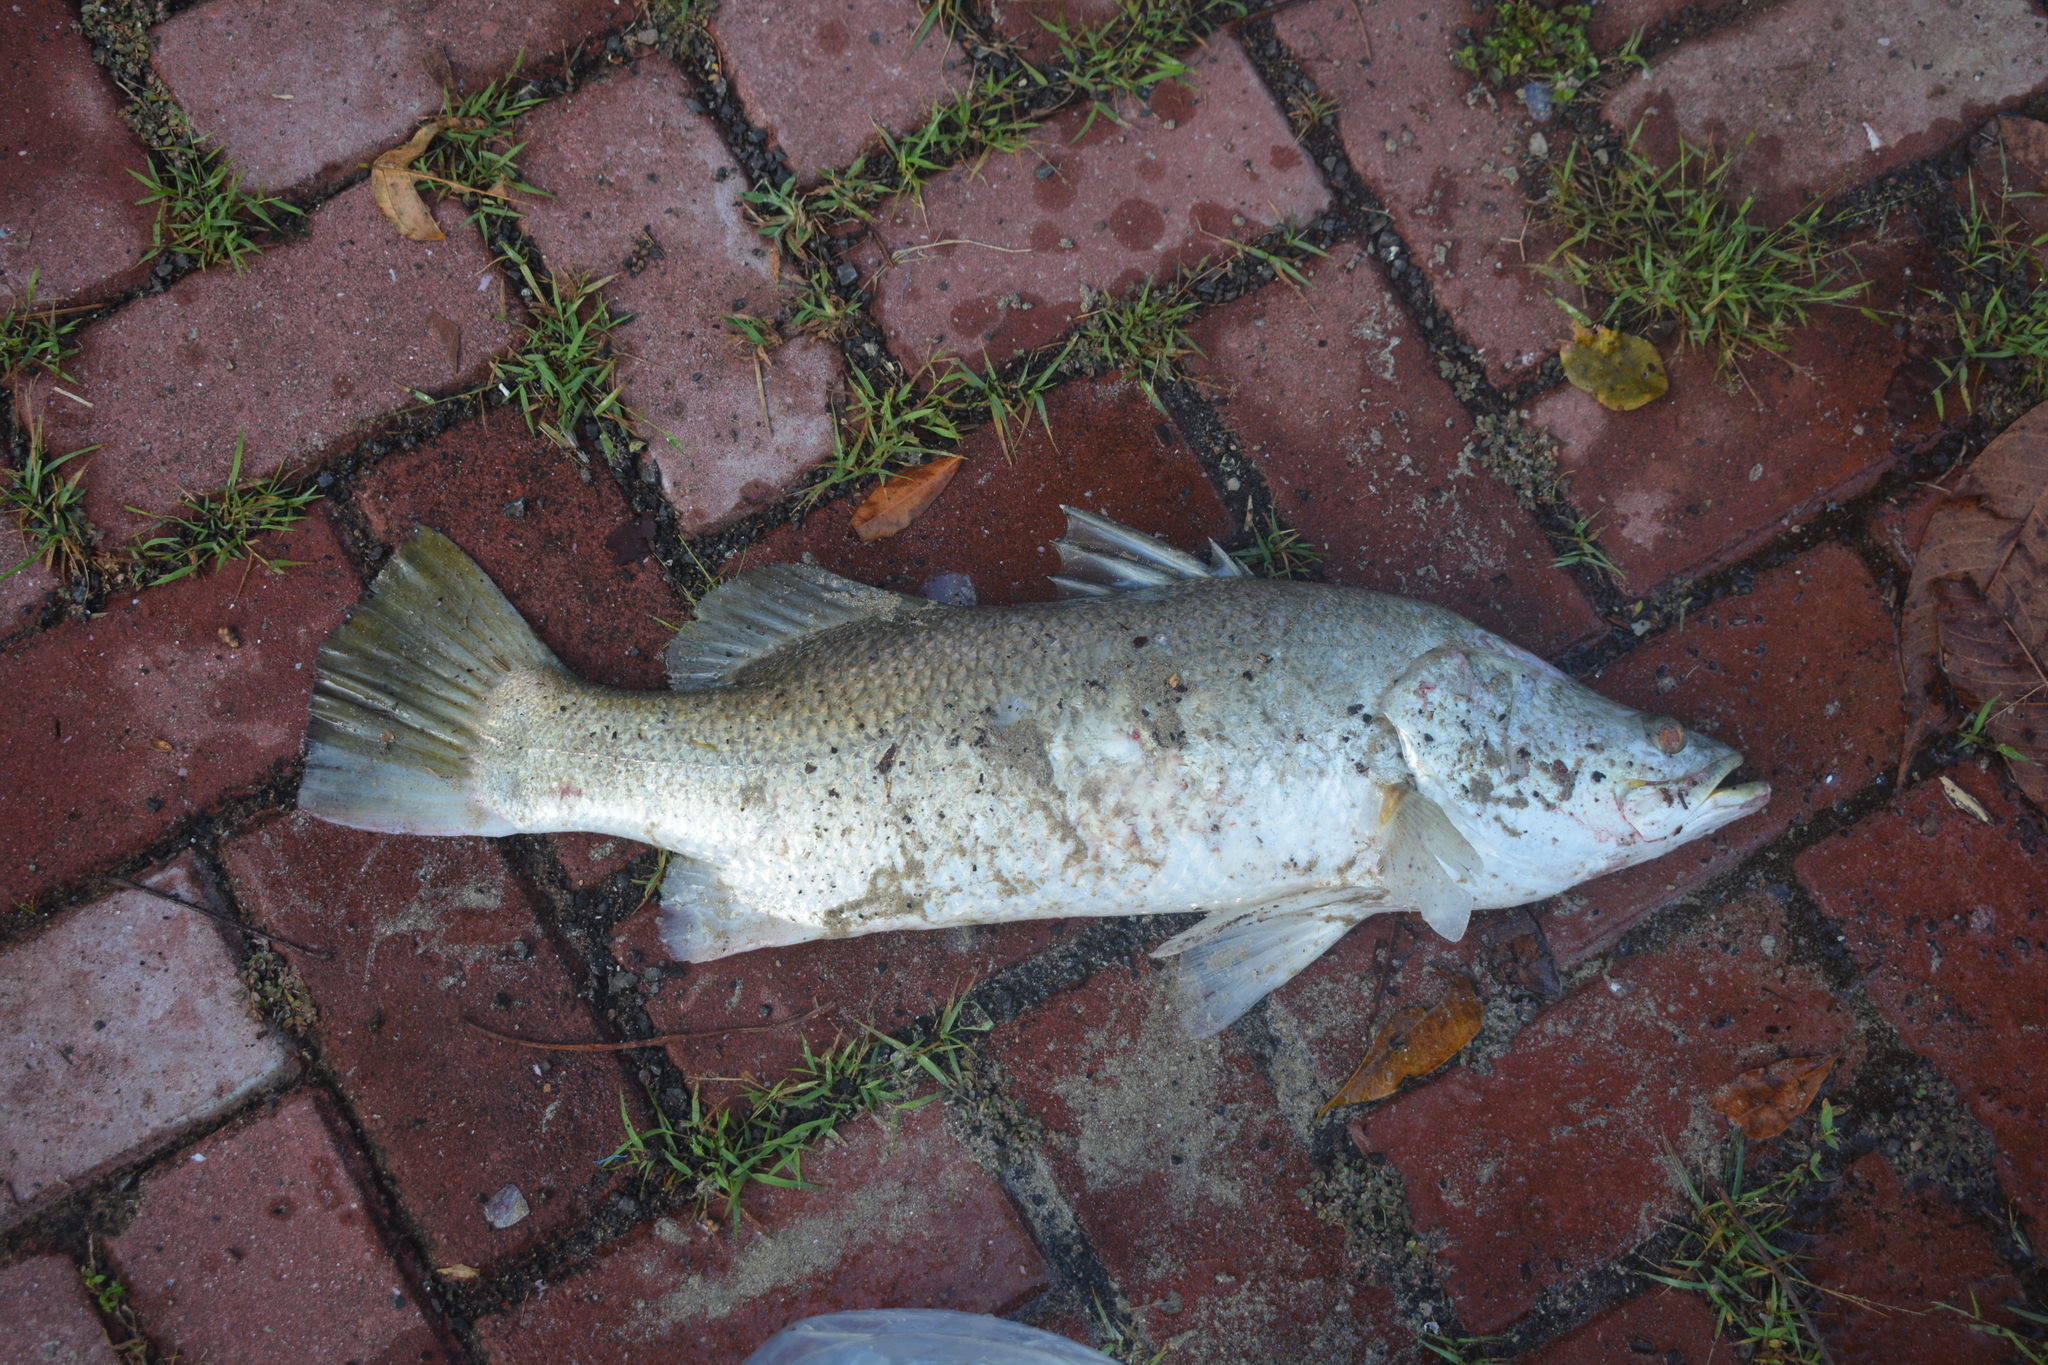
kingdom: Animalia
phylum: Chordata
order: Perciformes
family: Latidae
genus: Lates
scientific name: Lates calcarifer
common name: Barramundi
